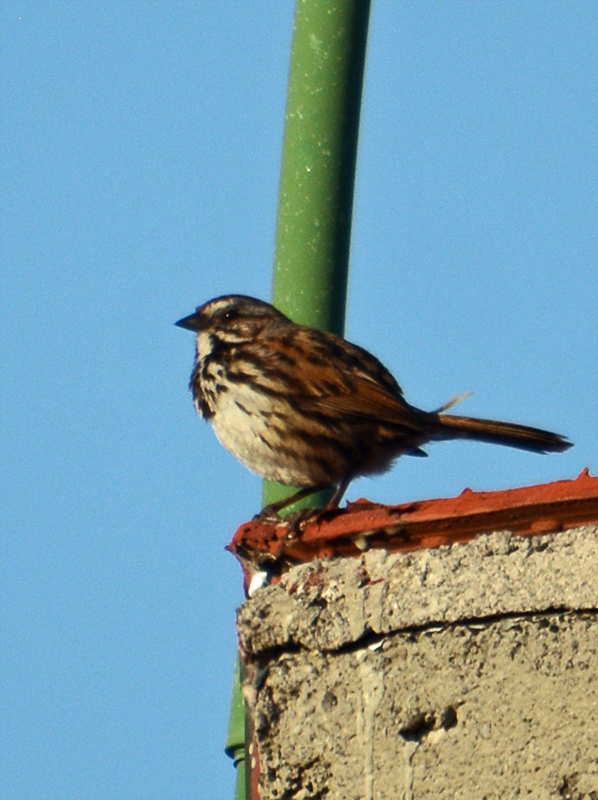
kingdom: Animalia
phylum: Chordata
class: Aves
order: Passeriformes
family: Passerellidae
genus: Melospiza
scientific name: Melospiza melodia
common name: Song sparrow
